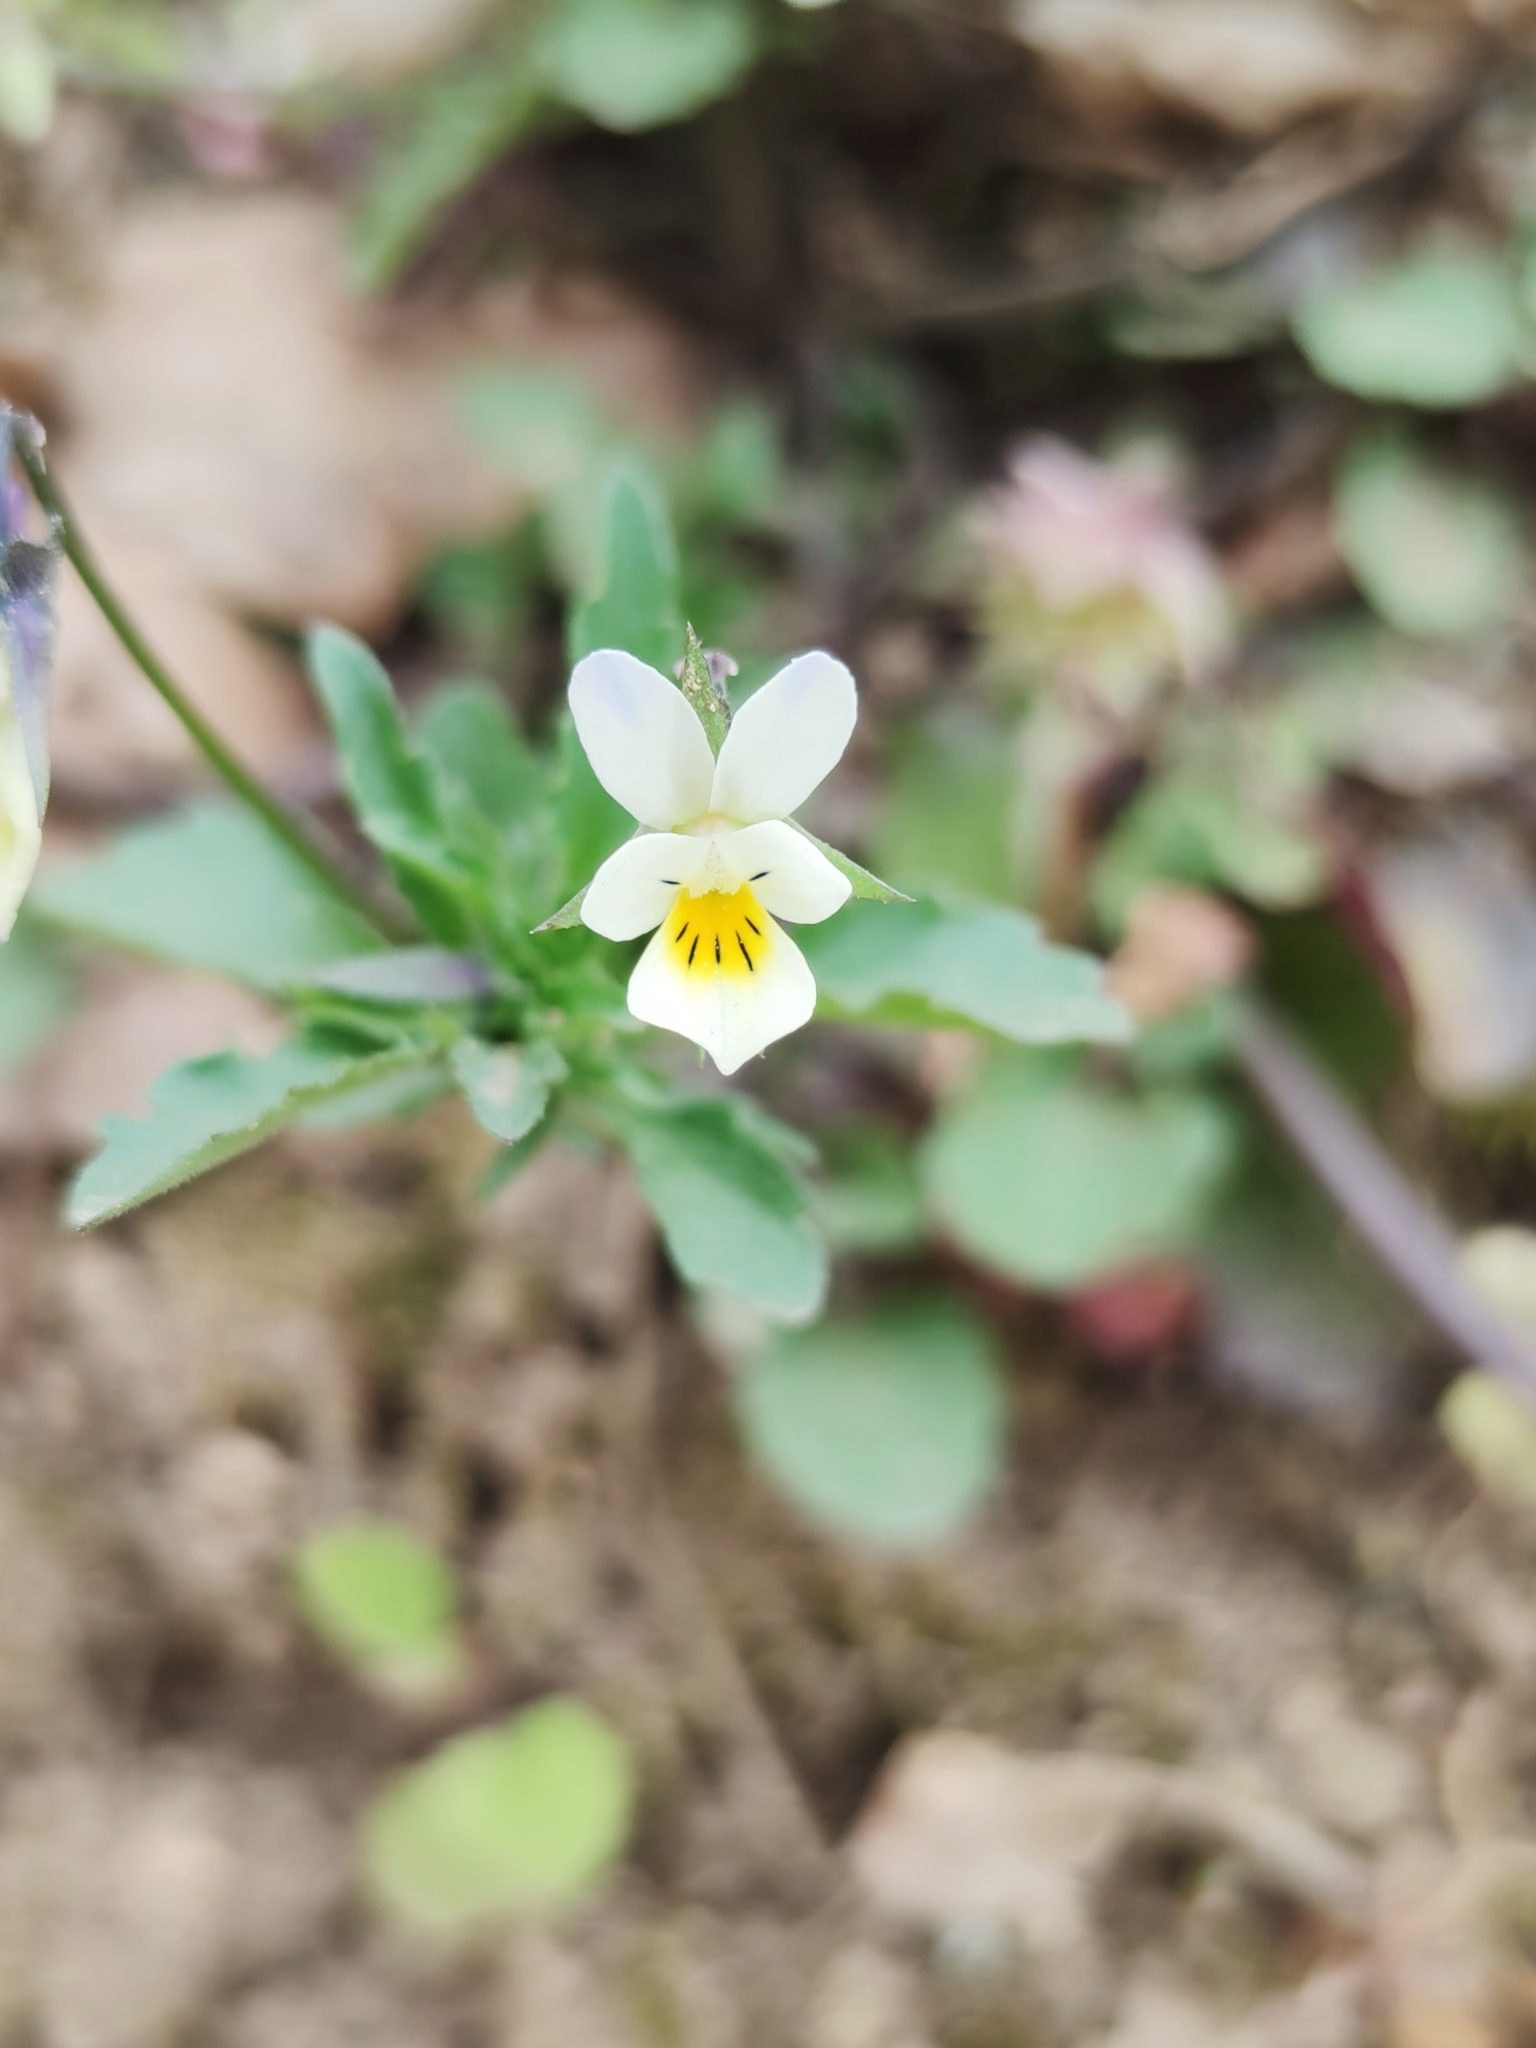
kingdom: Plantae
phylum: Tracheophyta
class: Magnoliopsida
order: Malpighiales
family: Violaceae
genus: Viola
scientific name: Viola arvensis
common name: Field pansy
